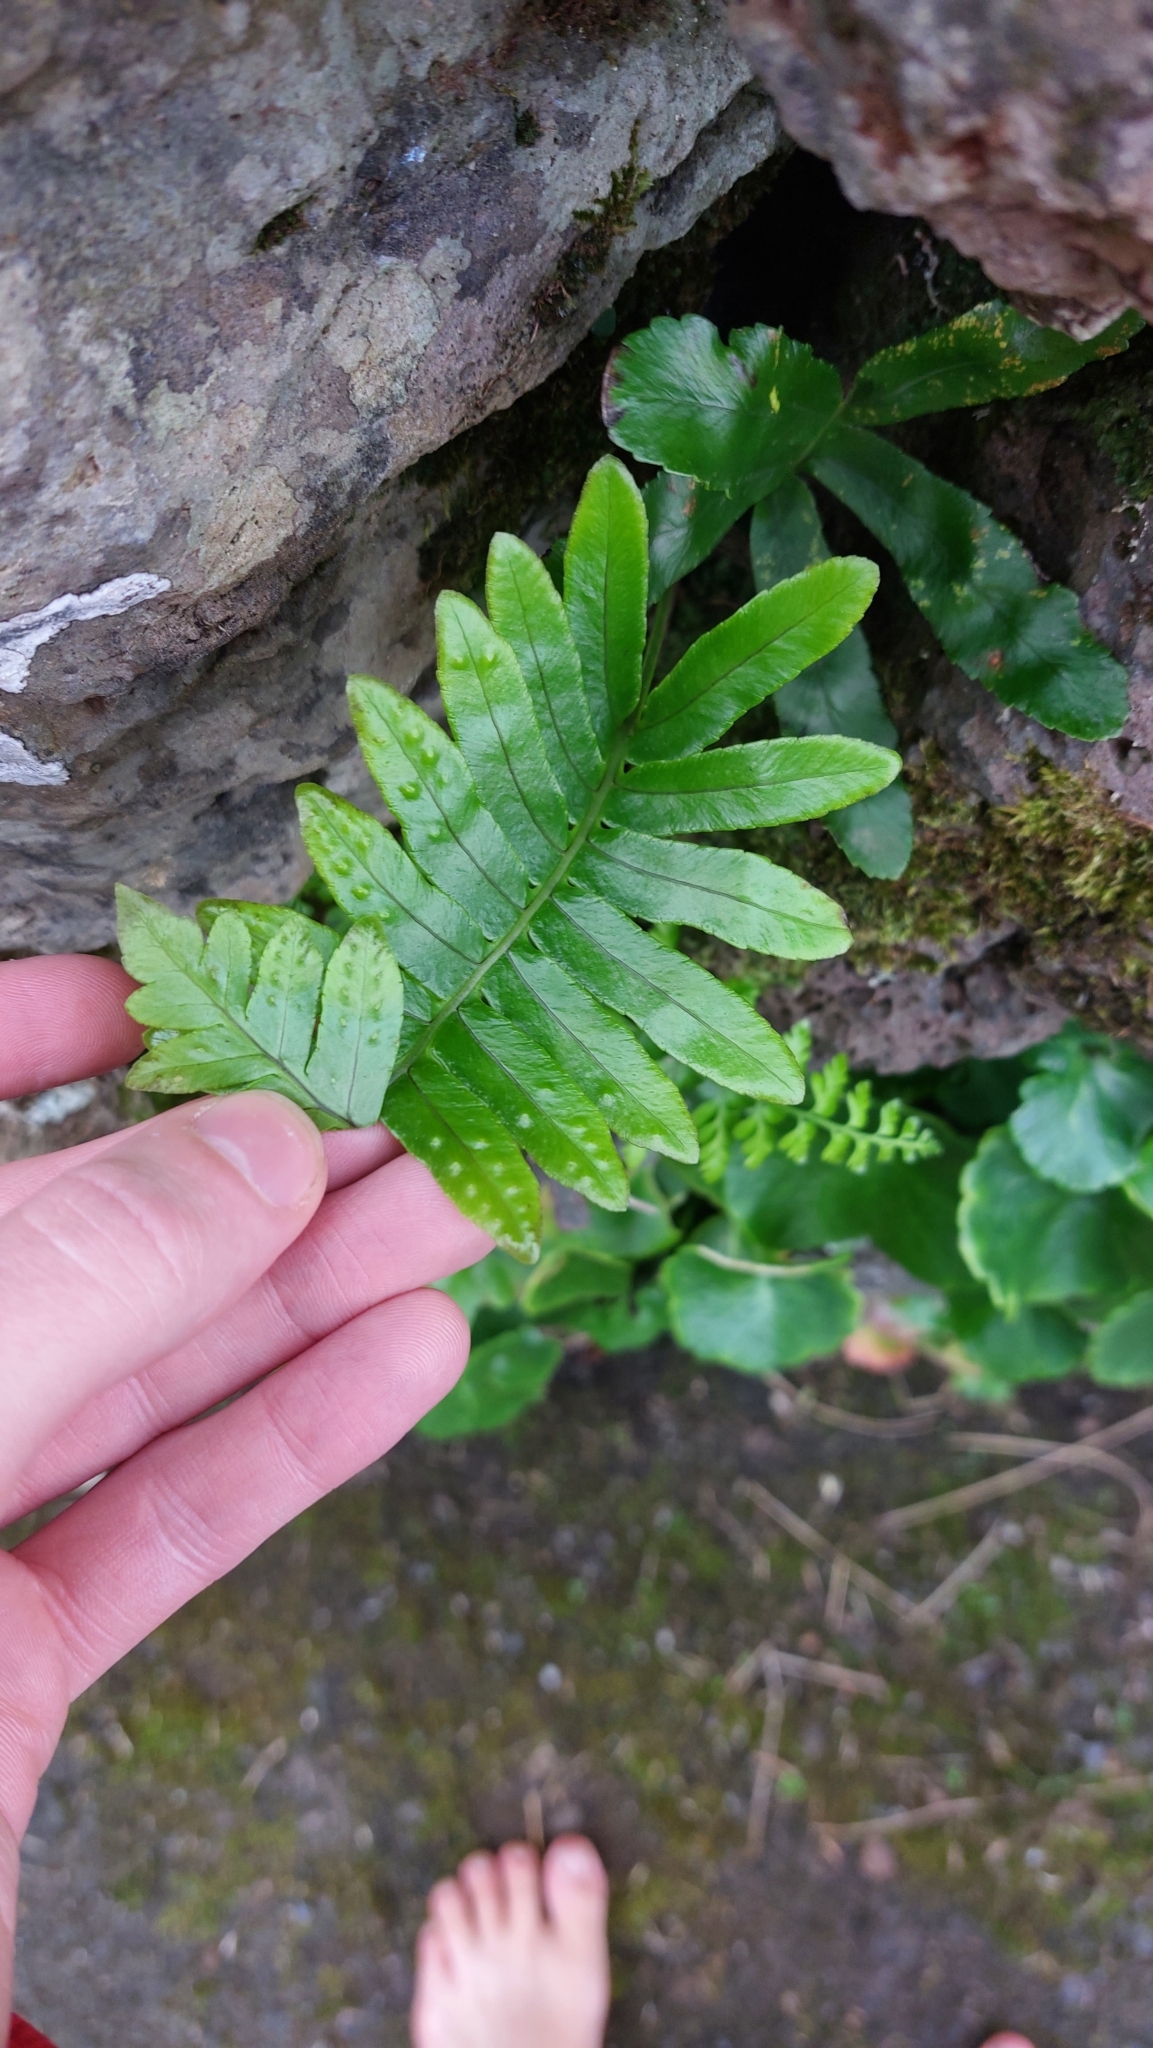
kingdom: Plantae
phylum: Tracheophyta
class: Polypodiopsida
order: Polypodiales
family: Polypodiaceae
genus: Polypodium
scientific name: Polypodium macaronesicum
